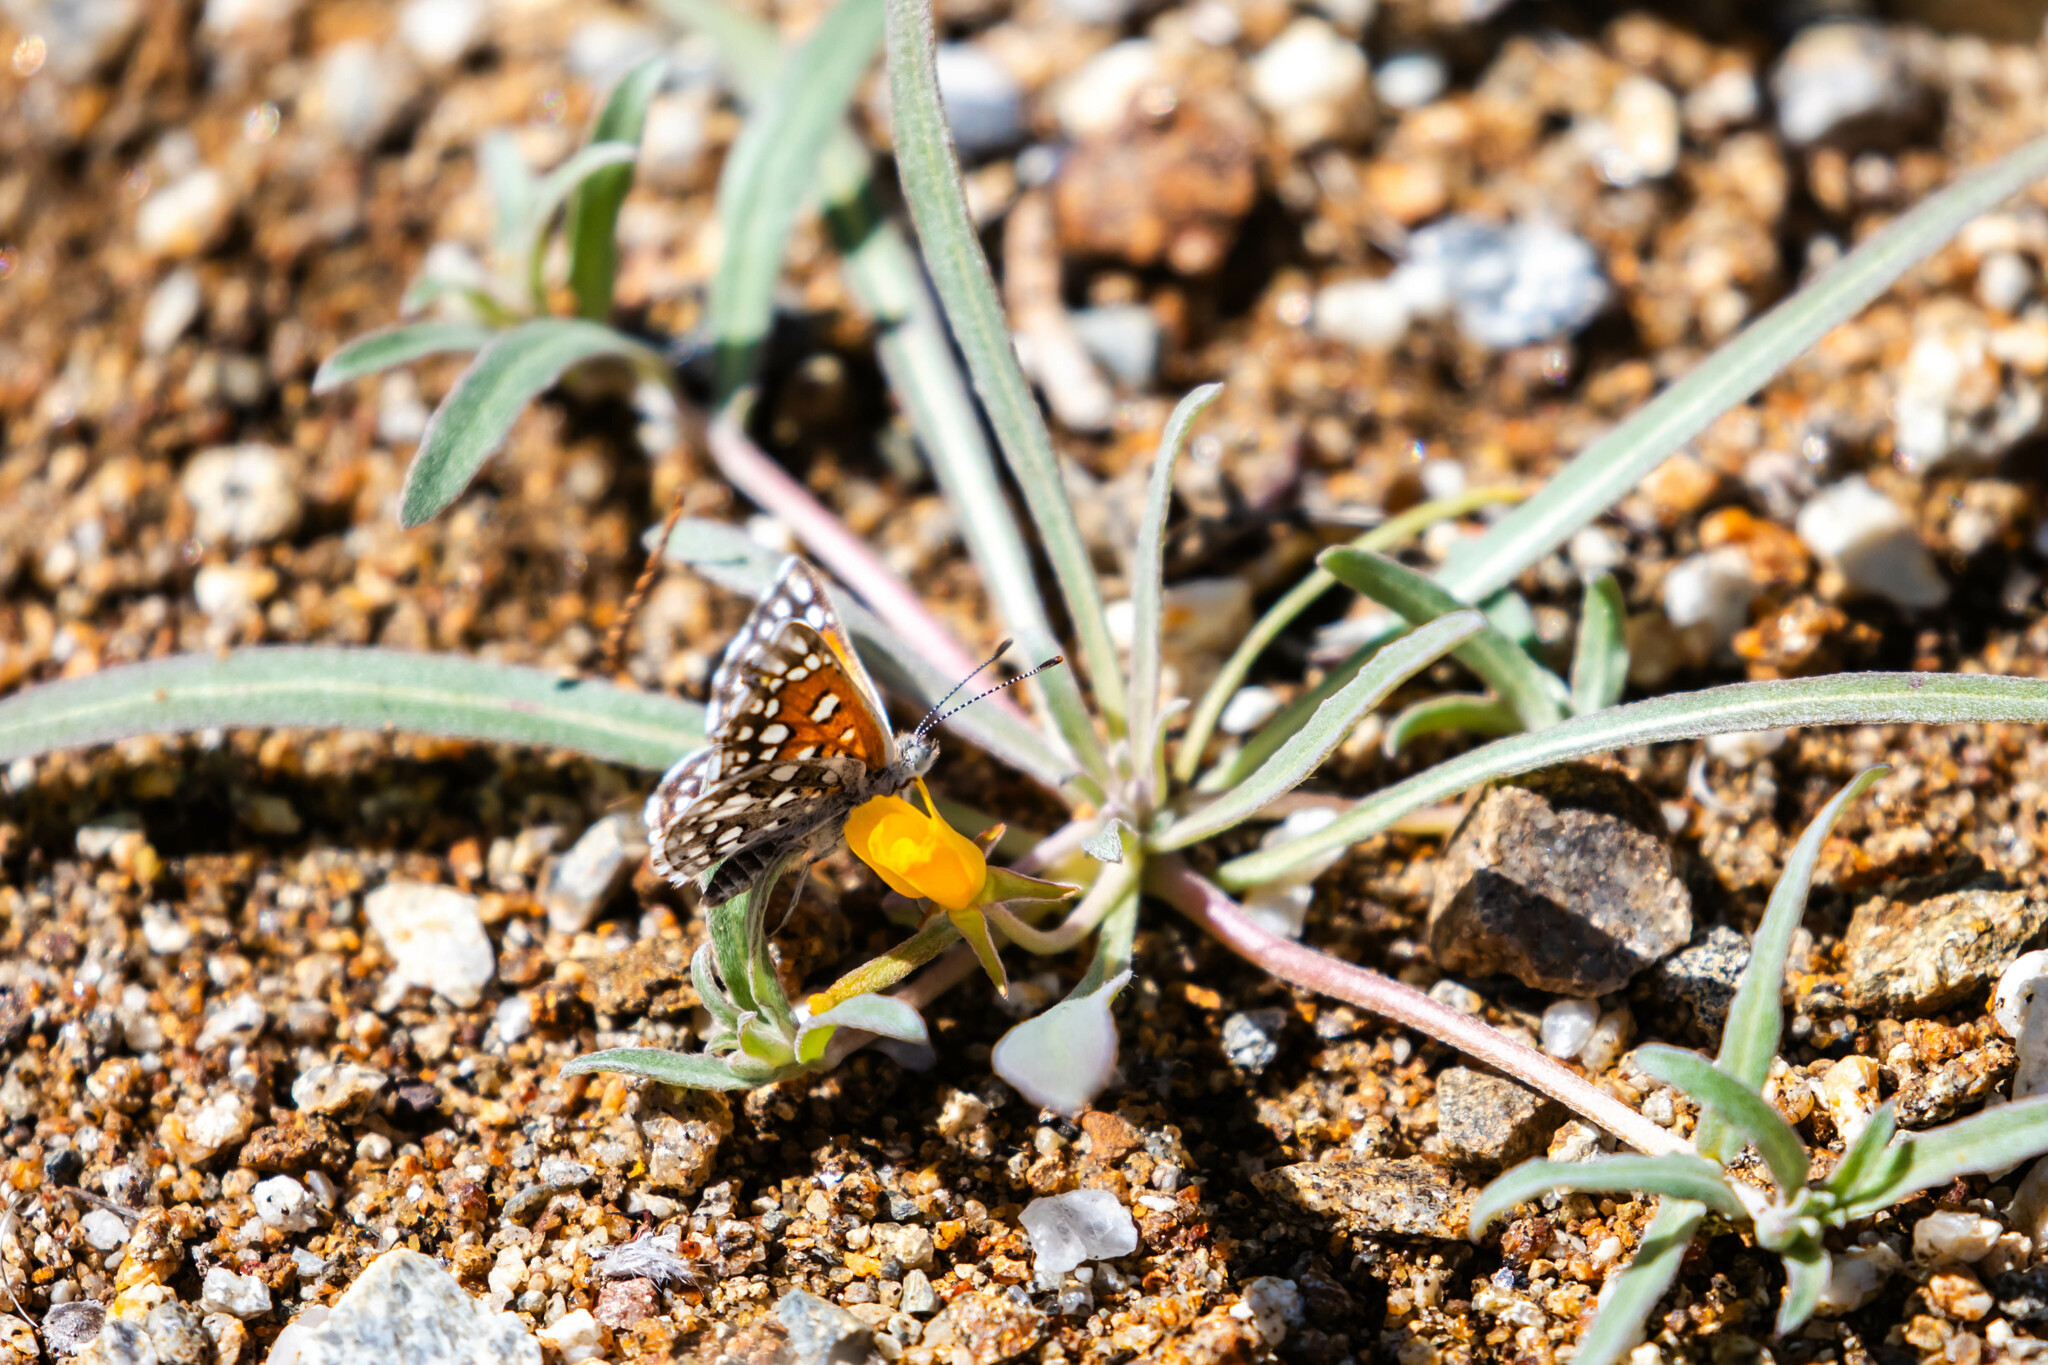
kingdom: Animalia
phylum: Arthropoda
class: Insecta
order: Lepidoptera
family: Riodinidae
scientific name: Riodinidae
